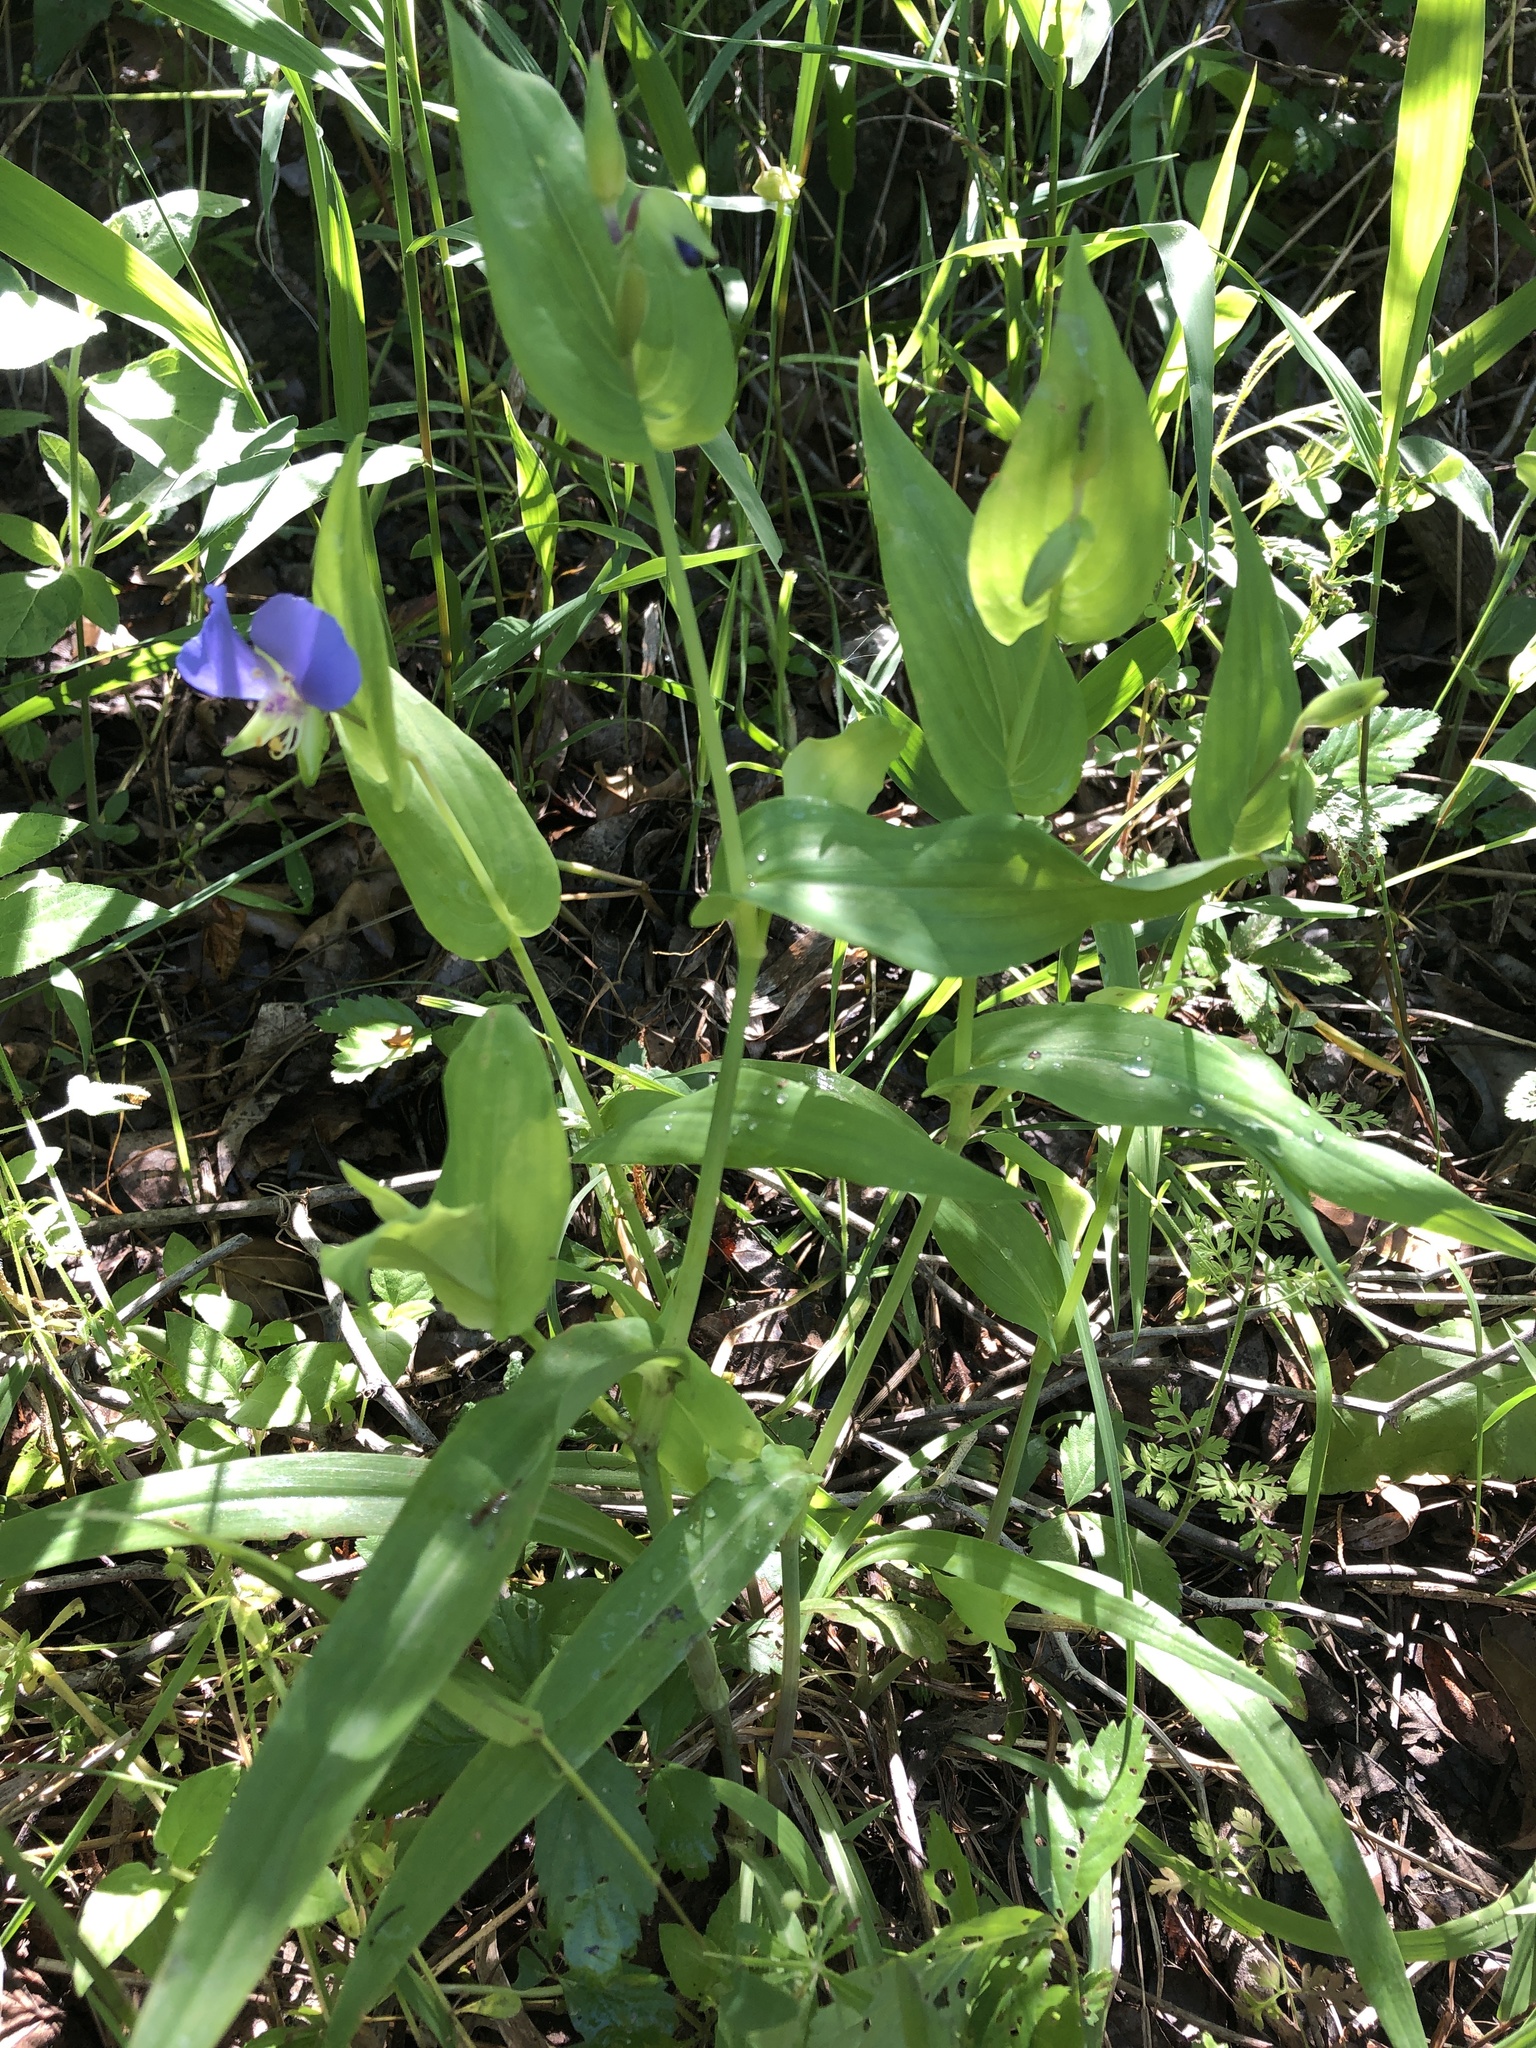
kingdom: Plantae
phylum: Tracheophyta
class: Liliopsida
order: Commelinales
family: Commelinaceae
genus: Tinantia
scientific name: Tinantia anomala
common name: False dayflower
